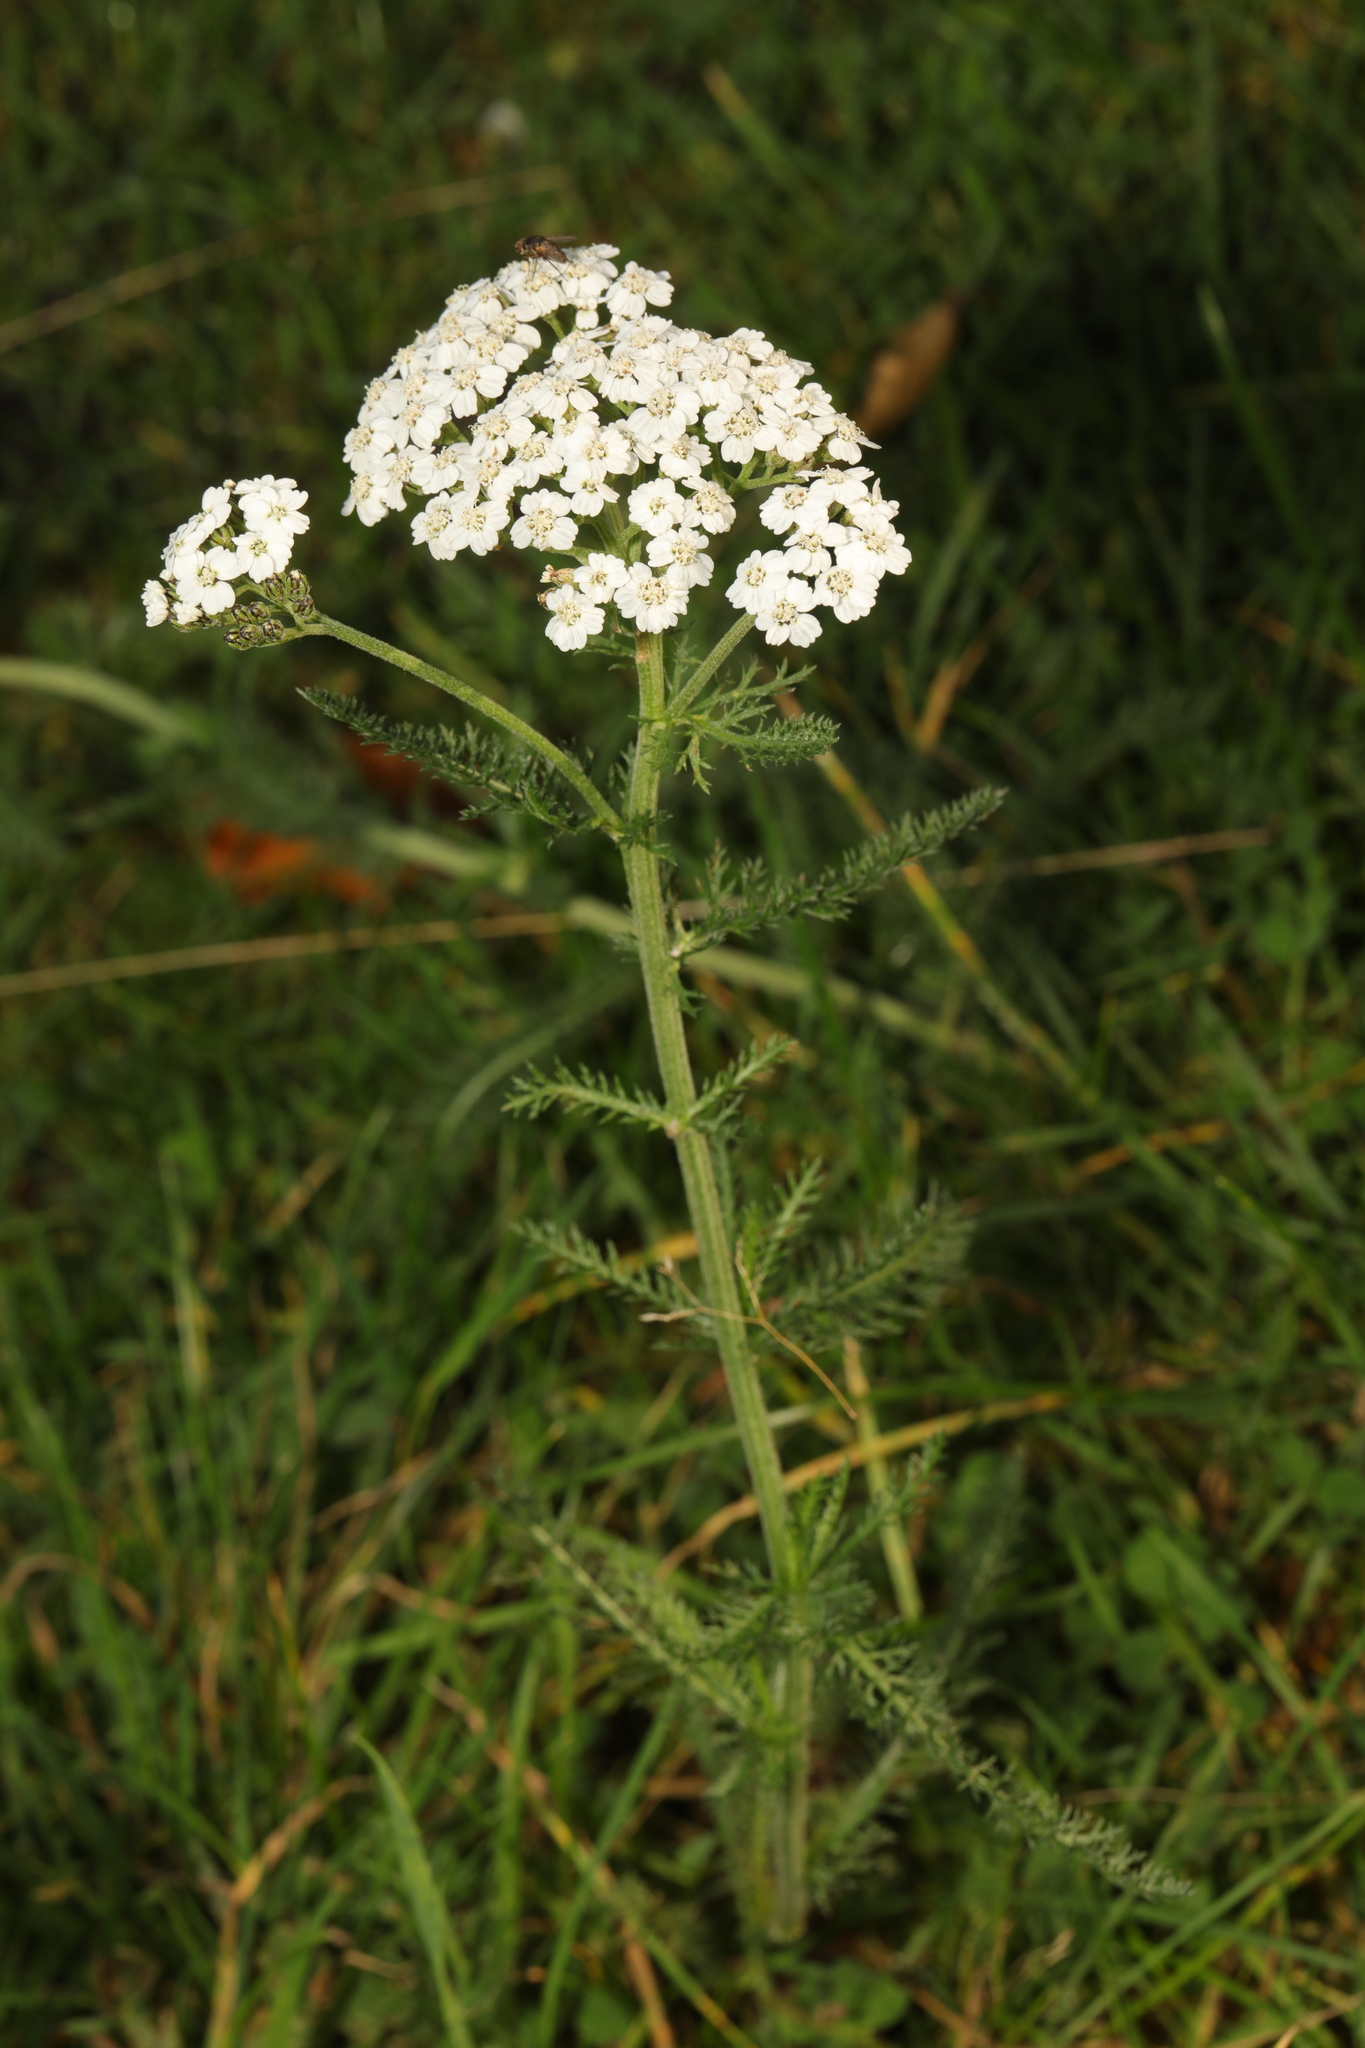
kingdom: Plantae
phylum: Tracheophyta
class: Magnoliopsida
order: Asterales
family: Asteraceae
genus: Achillea
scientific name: Achillea millefolium
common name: Yarrow
